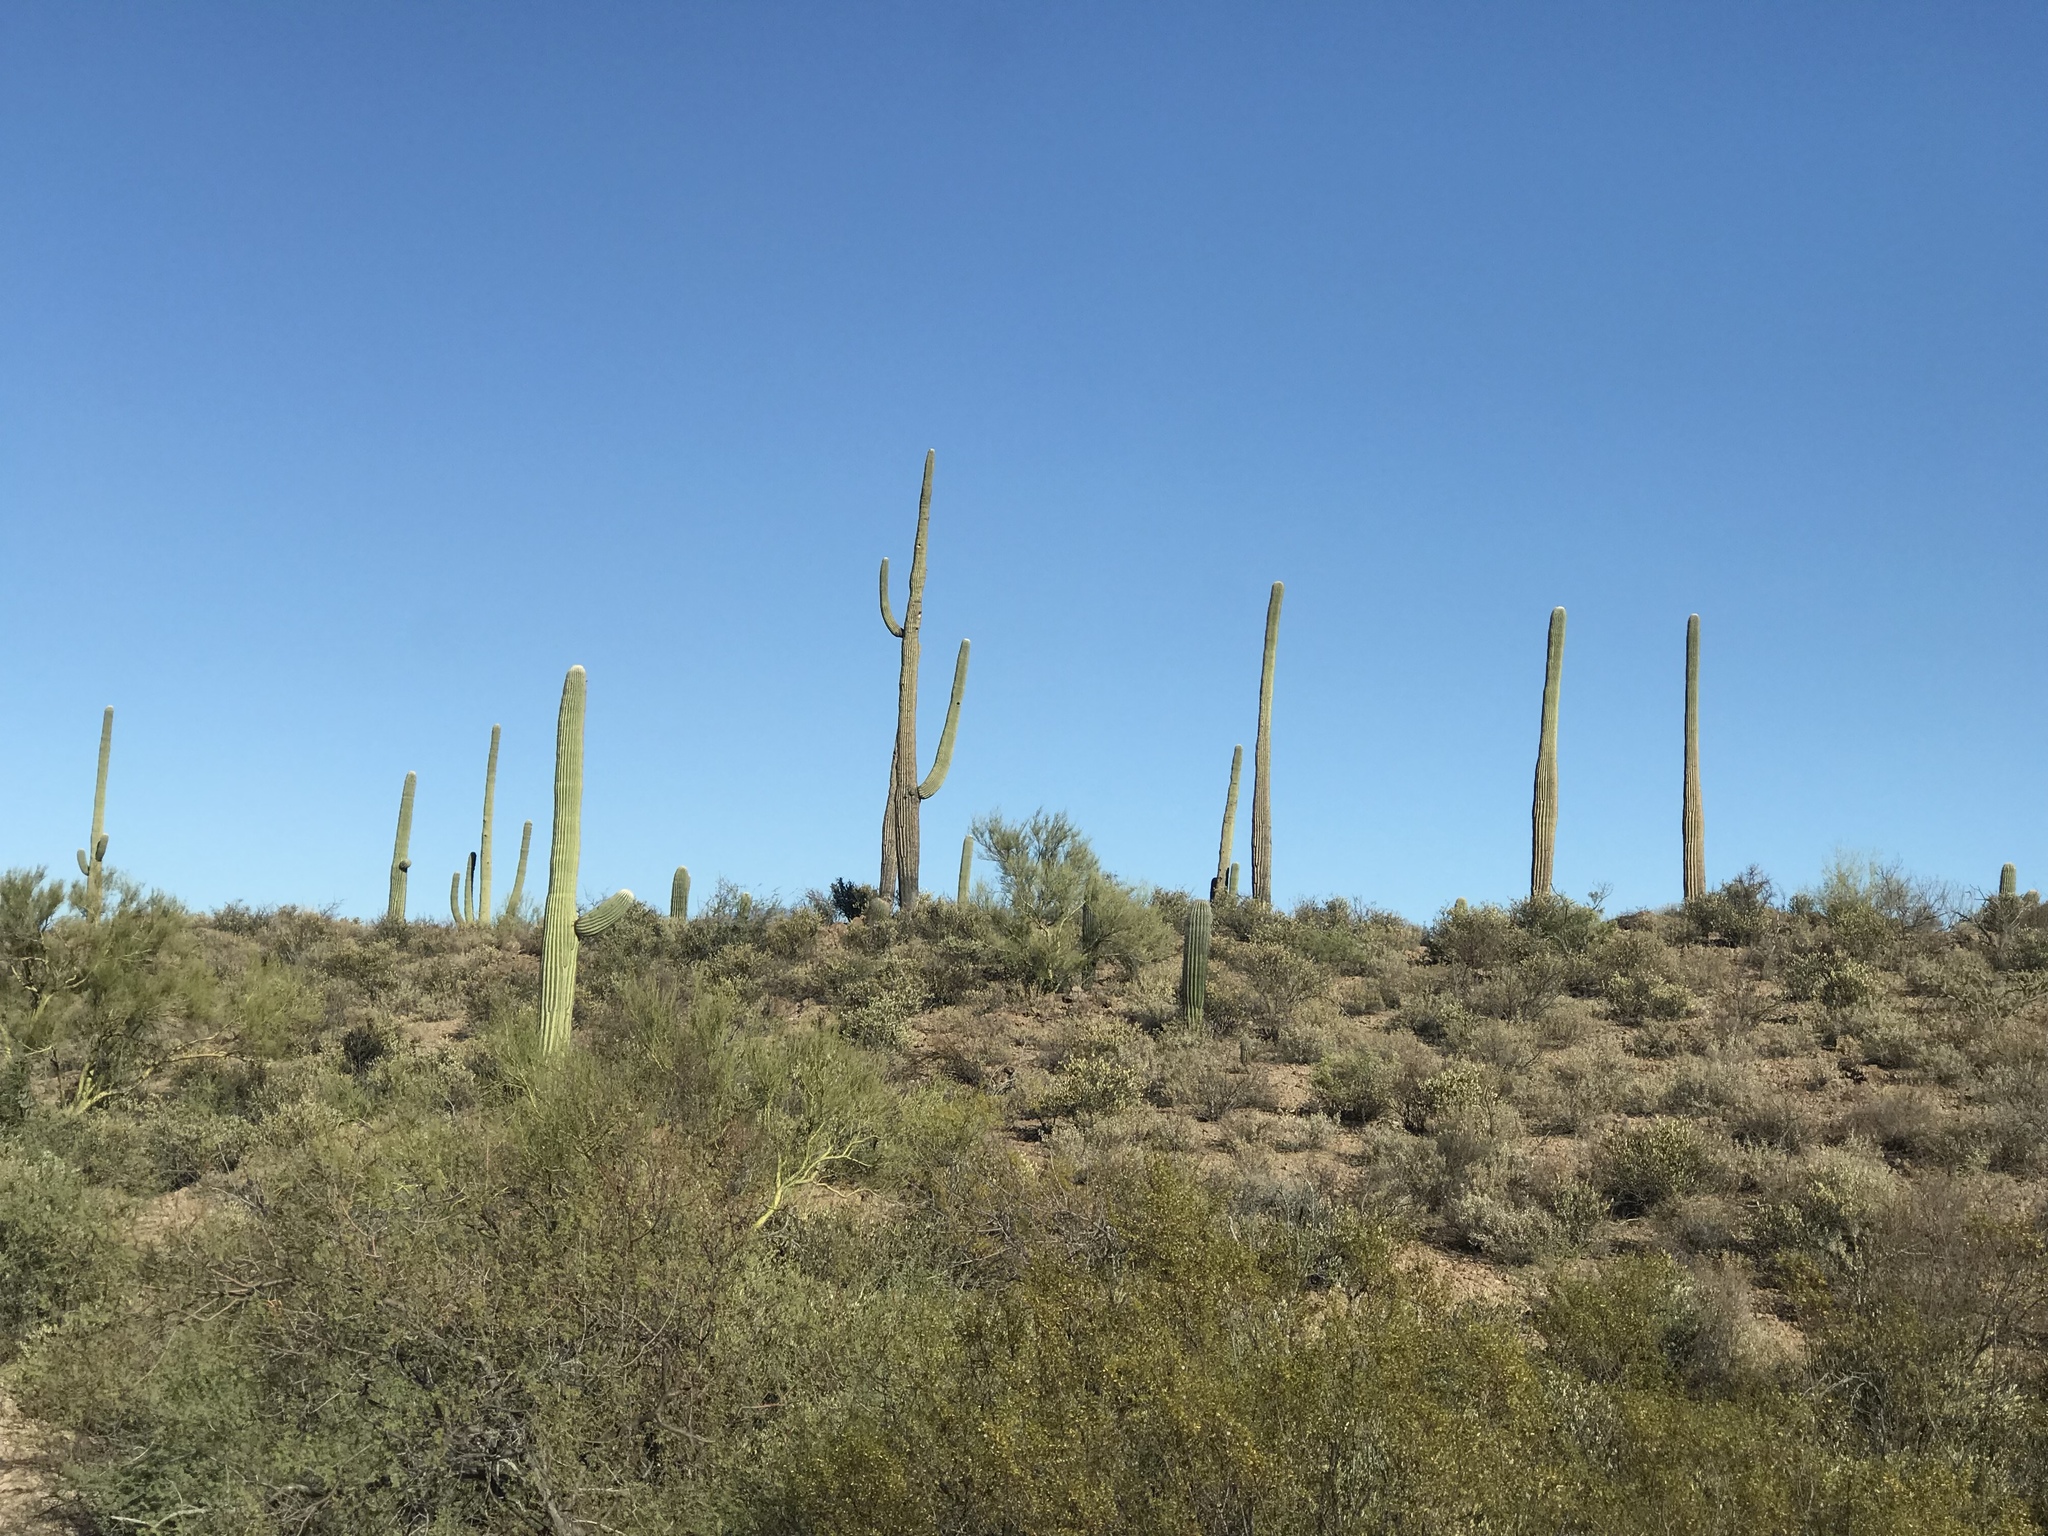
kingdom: Plantae
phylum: Tracheophyta
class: Magnoliopsida
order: Caryophyllales
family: Cactaceae
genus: Carnegiea
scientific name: Carnegiea gigantea
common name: Saguaro
